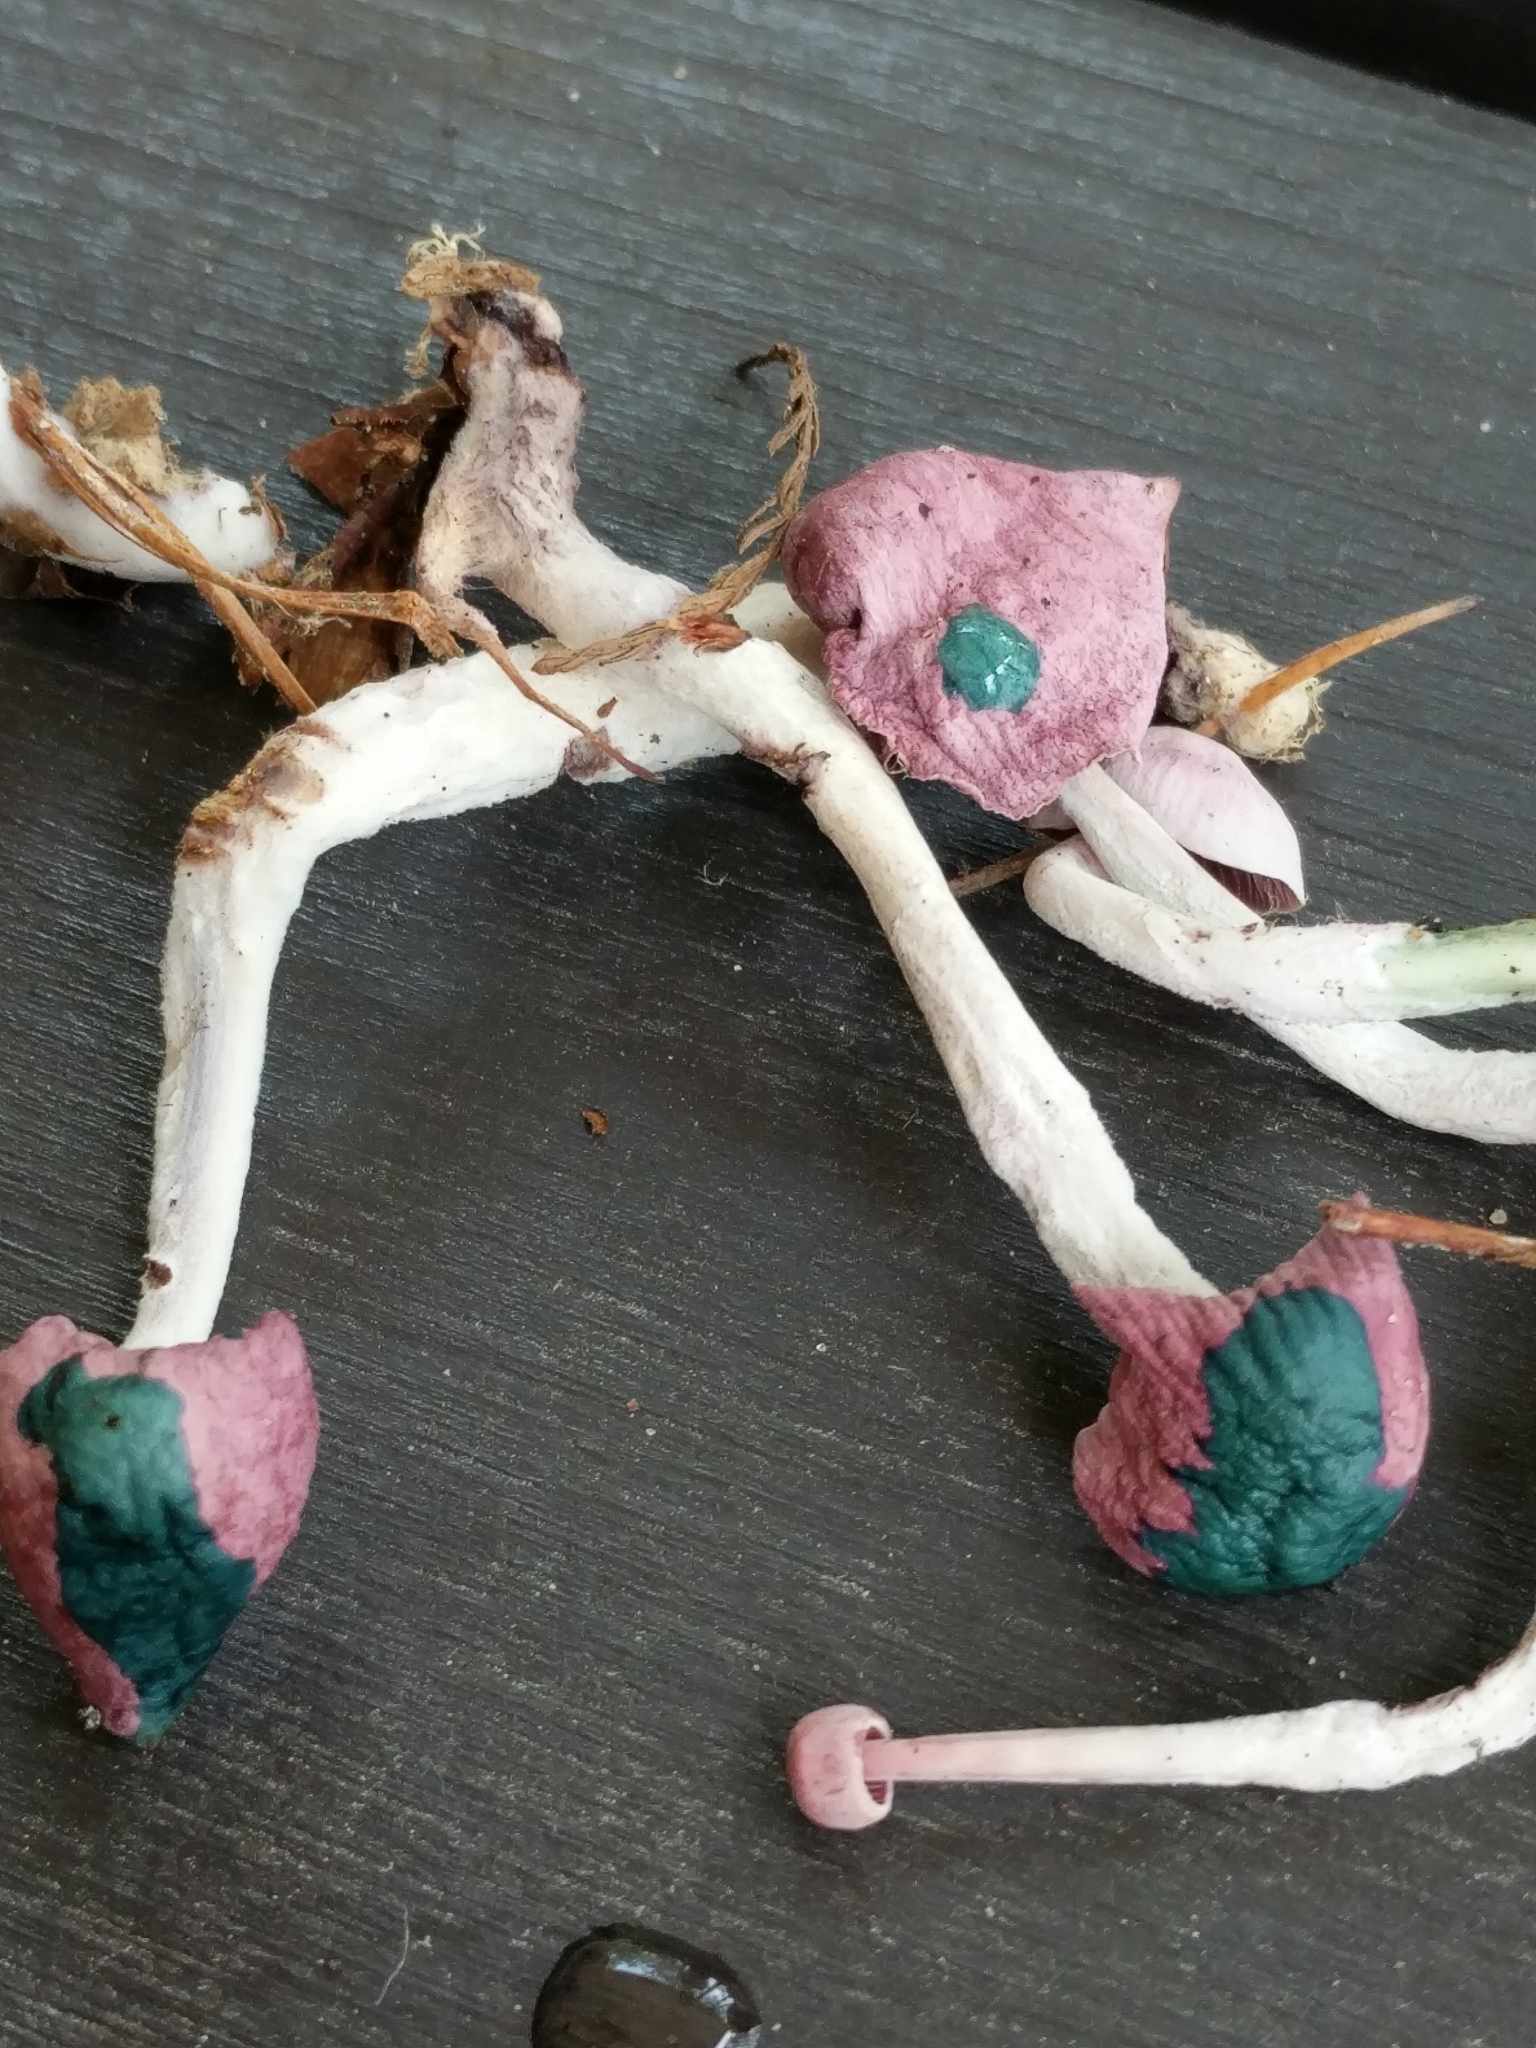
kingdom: Fungi
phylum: Basidiomycota
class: Agaricomycetes
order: Agaricales
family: Omphalotaceae
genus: Gymnopus
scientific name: Gymnopus iocephalus
